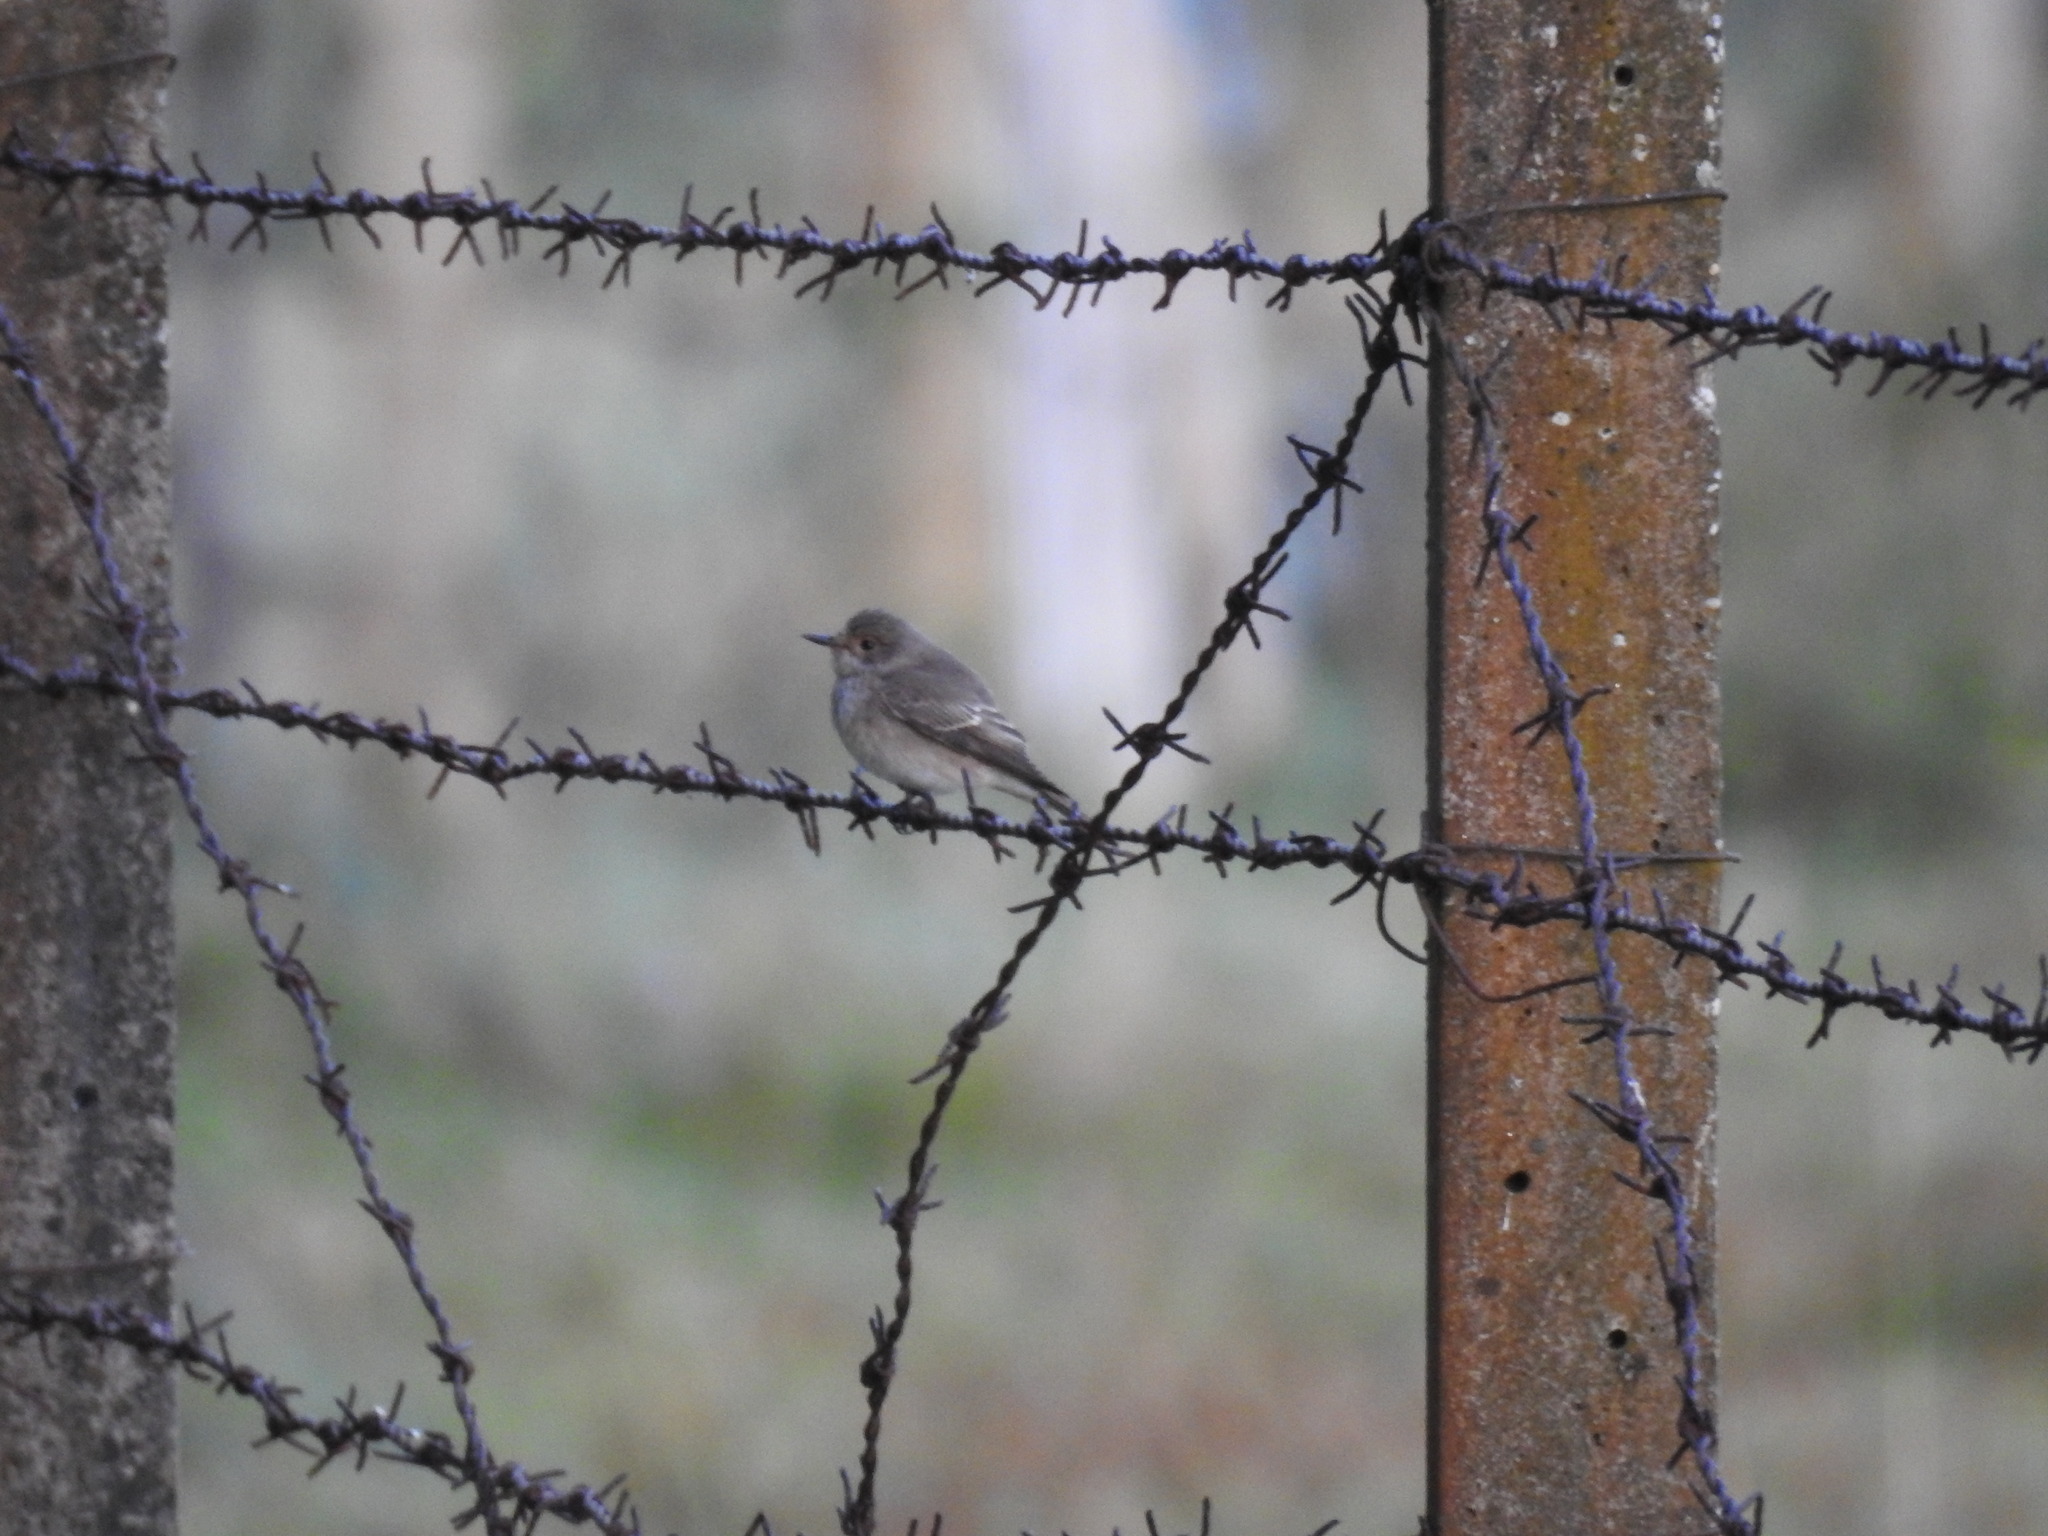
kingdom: Animalia
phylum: Chordata
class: Aves
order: Passeriformes
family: Muscicapidae
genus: Muscicapa
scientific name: Muscicapa striata
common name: Spotted flycatcher
